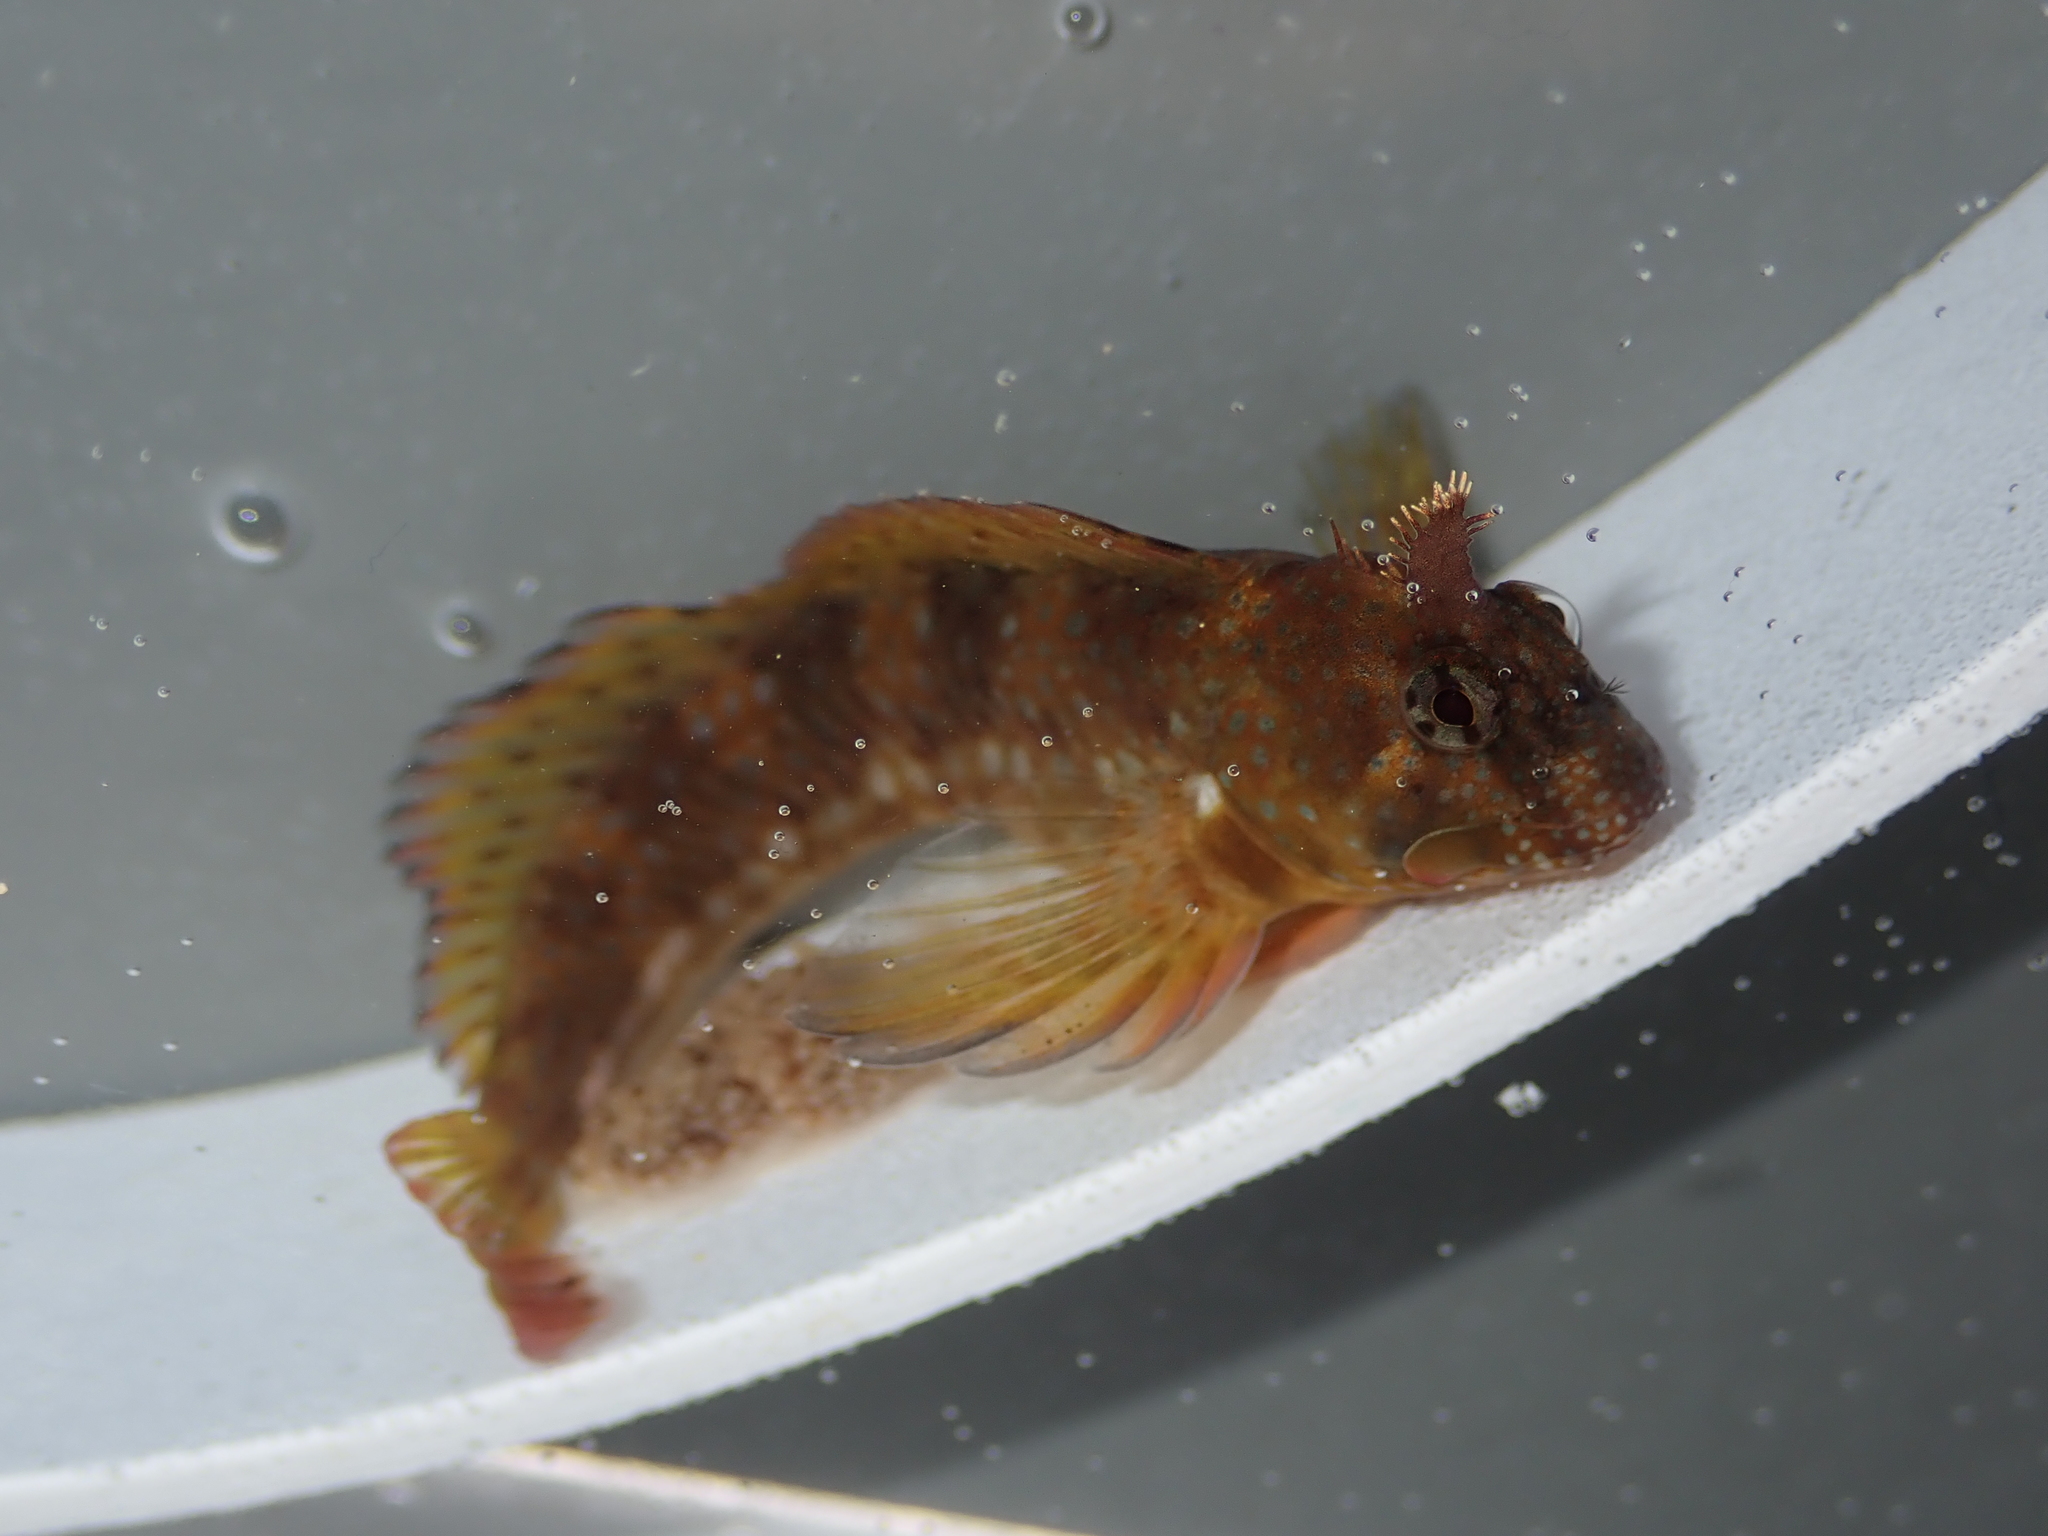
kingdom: Animalia
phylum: Chordata
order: Perciformes
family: Blenniidae
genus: Coryphoblennius
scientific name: Coryphoblennius galerita
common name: Montagu's blenny
